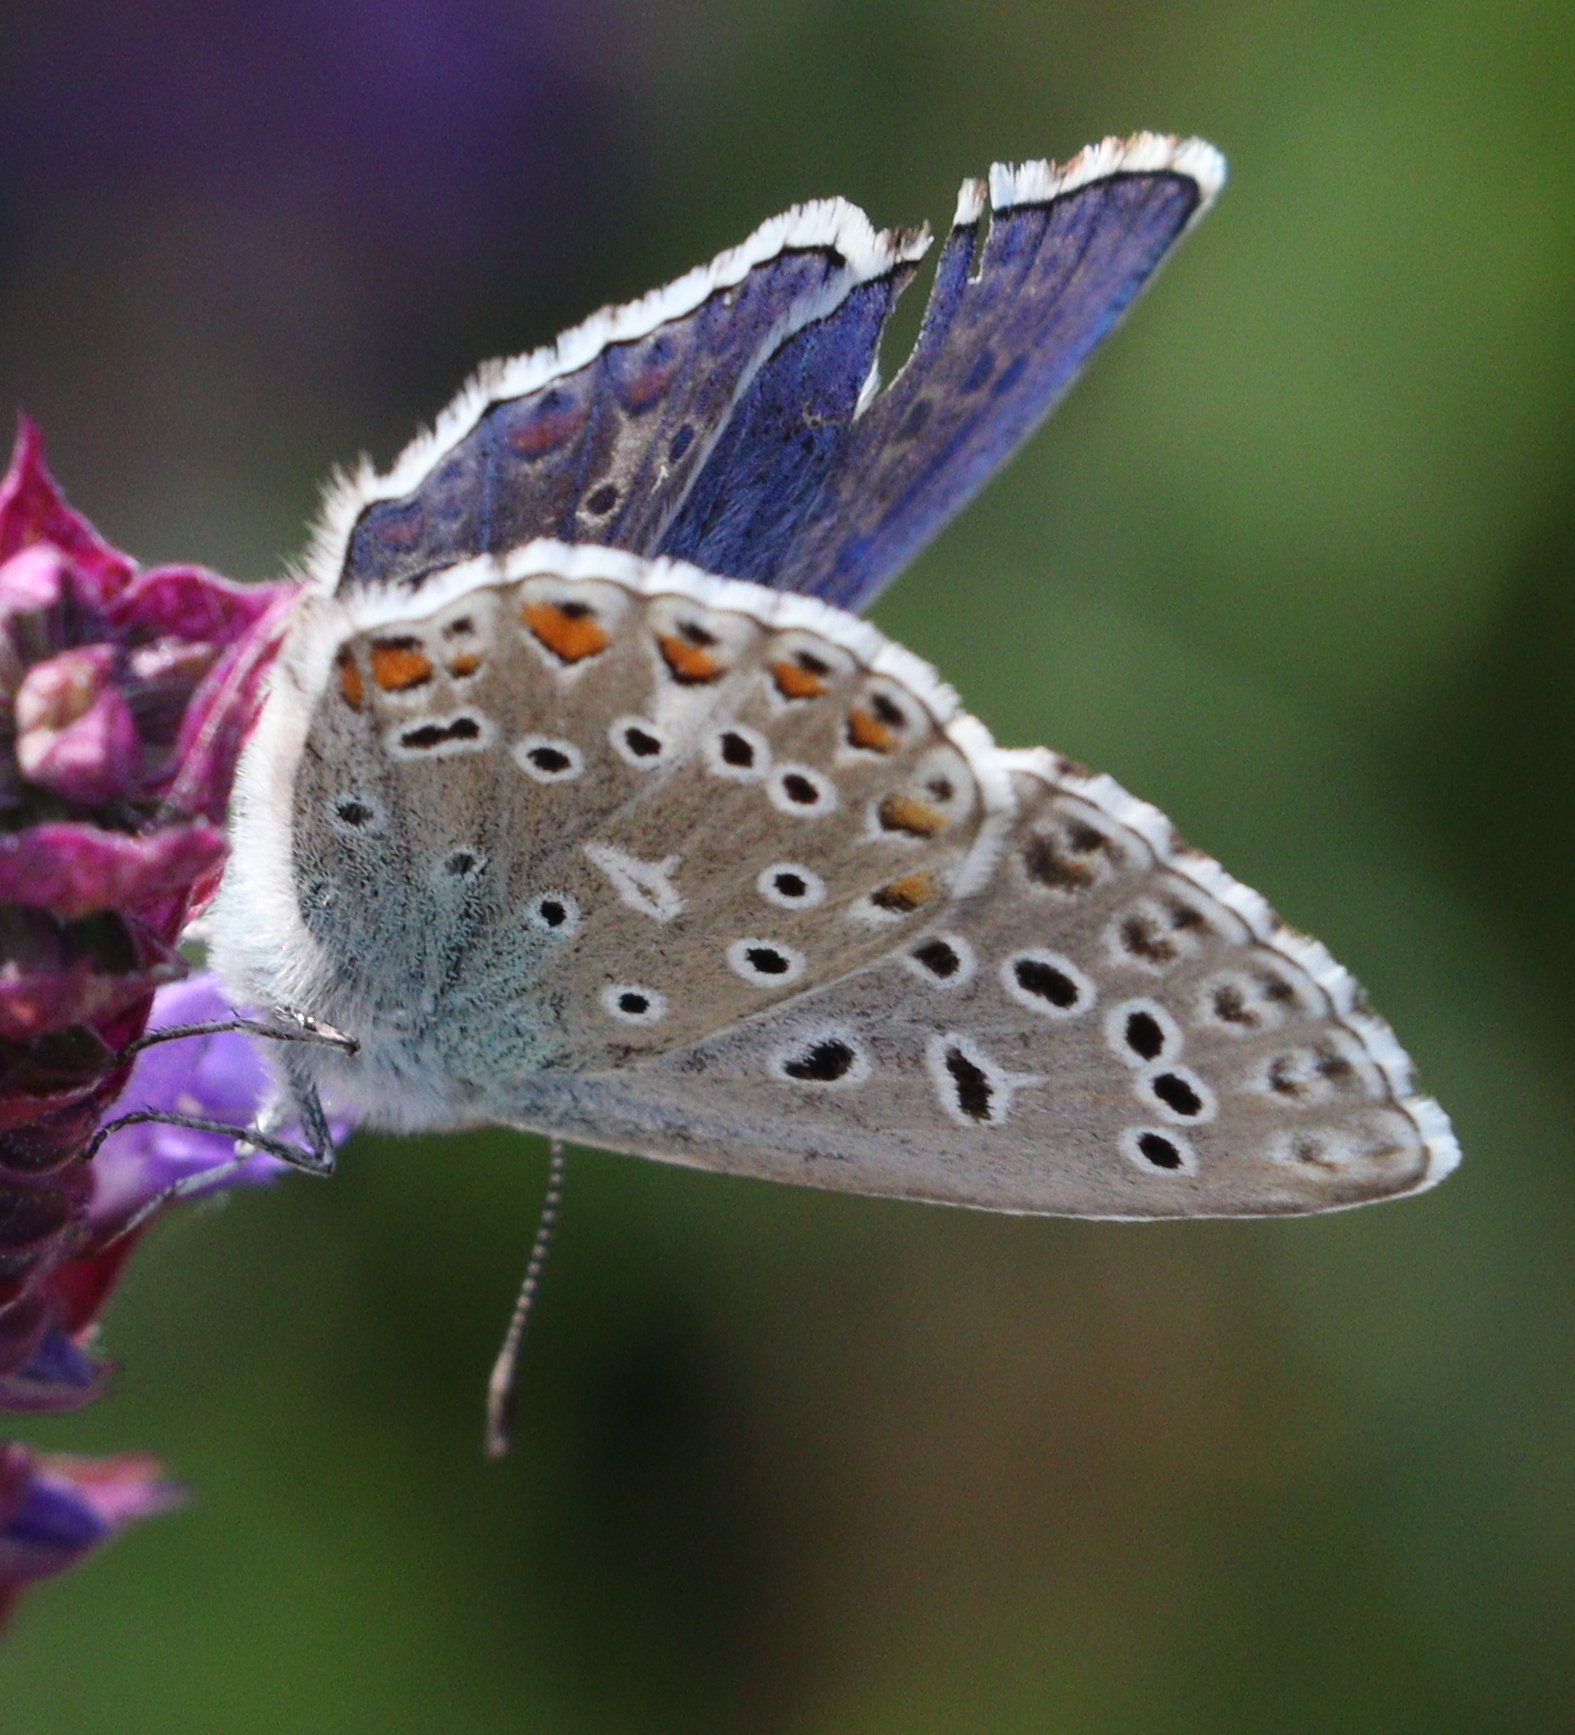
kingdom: Animalia
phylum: Arthropoda
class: Insecta
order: Lepidoptera
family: Lycaenidae
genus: Lysandra
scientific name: Lysandra bellargus
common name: Adonis blue
